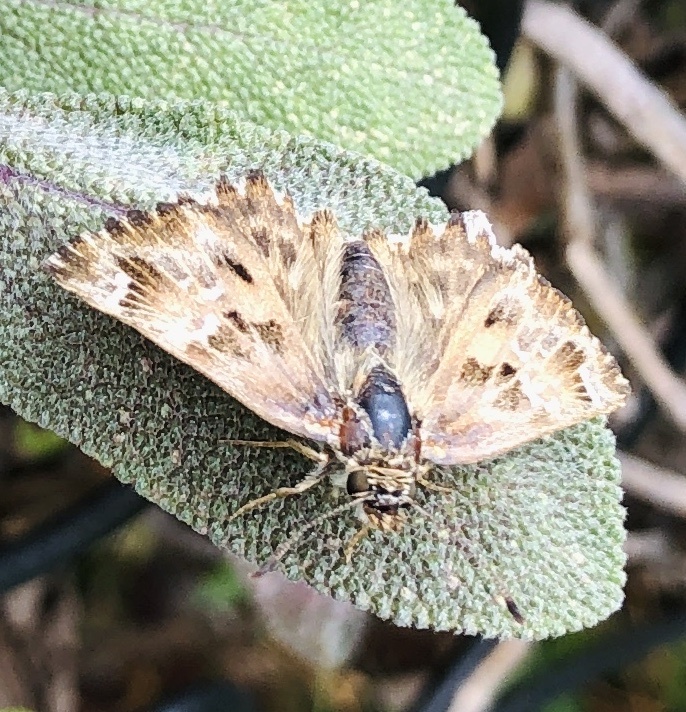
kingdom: Animalia
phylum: Arthropoda
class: Insecta
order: Lepidoptera
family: Hesperiidae
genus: Carcharodus
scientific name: Carcharodus alceae
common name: Mallow skipper
